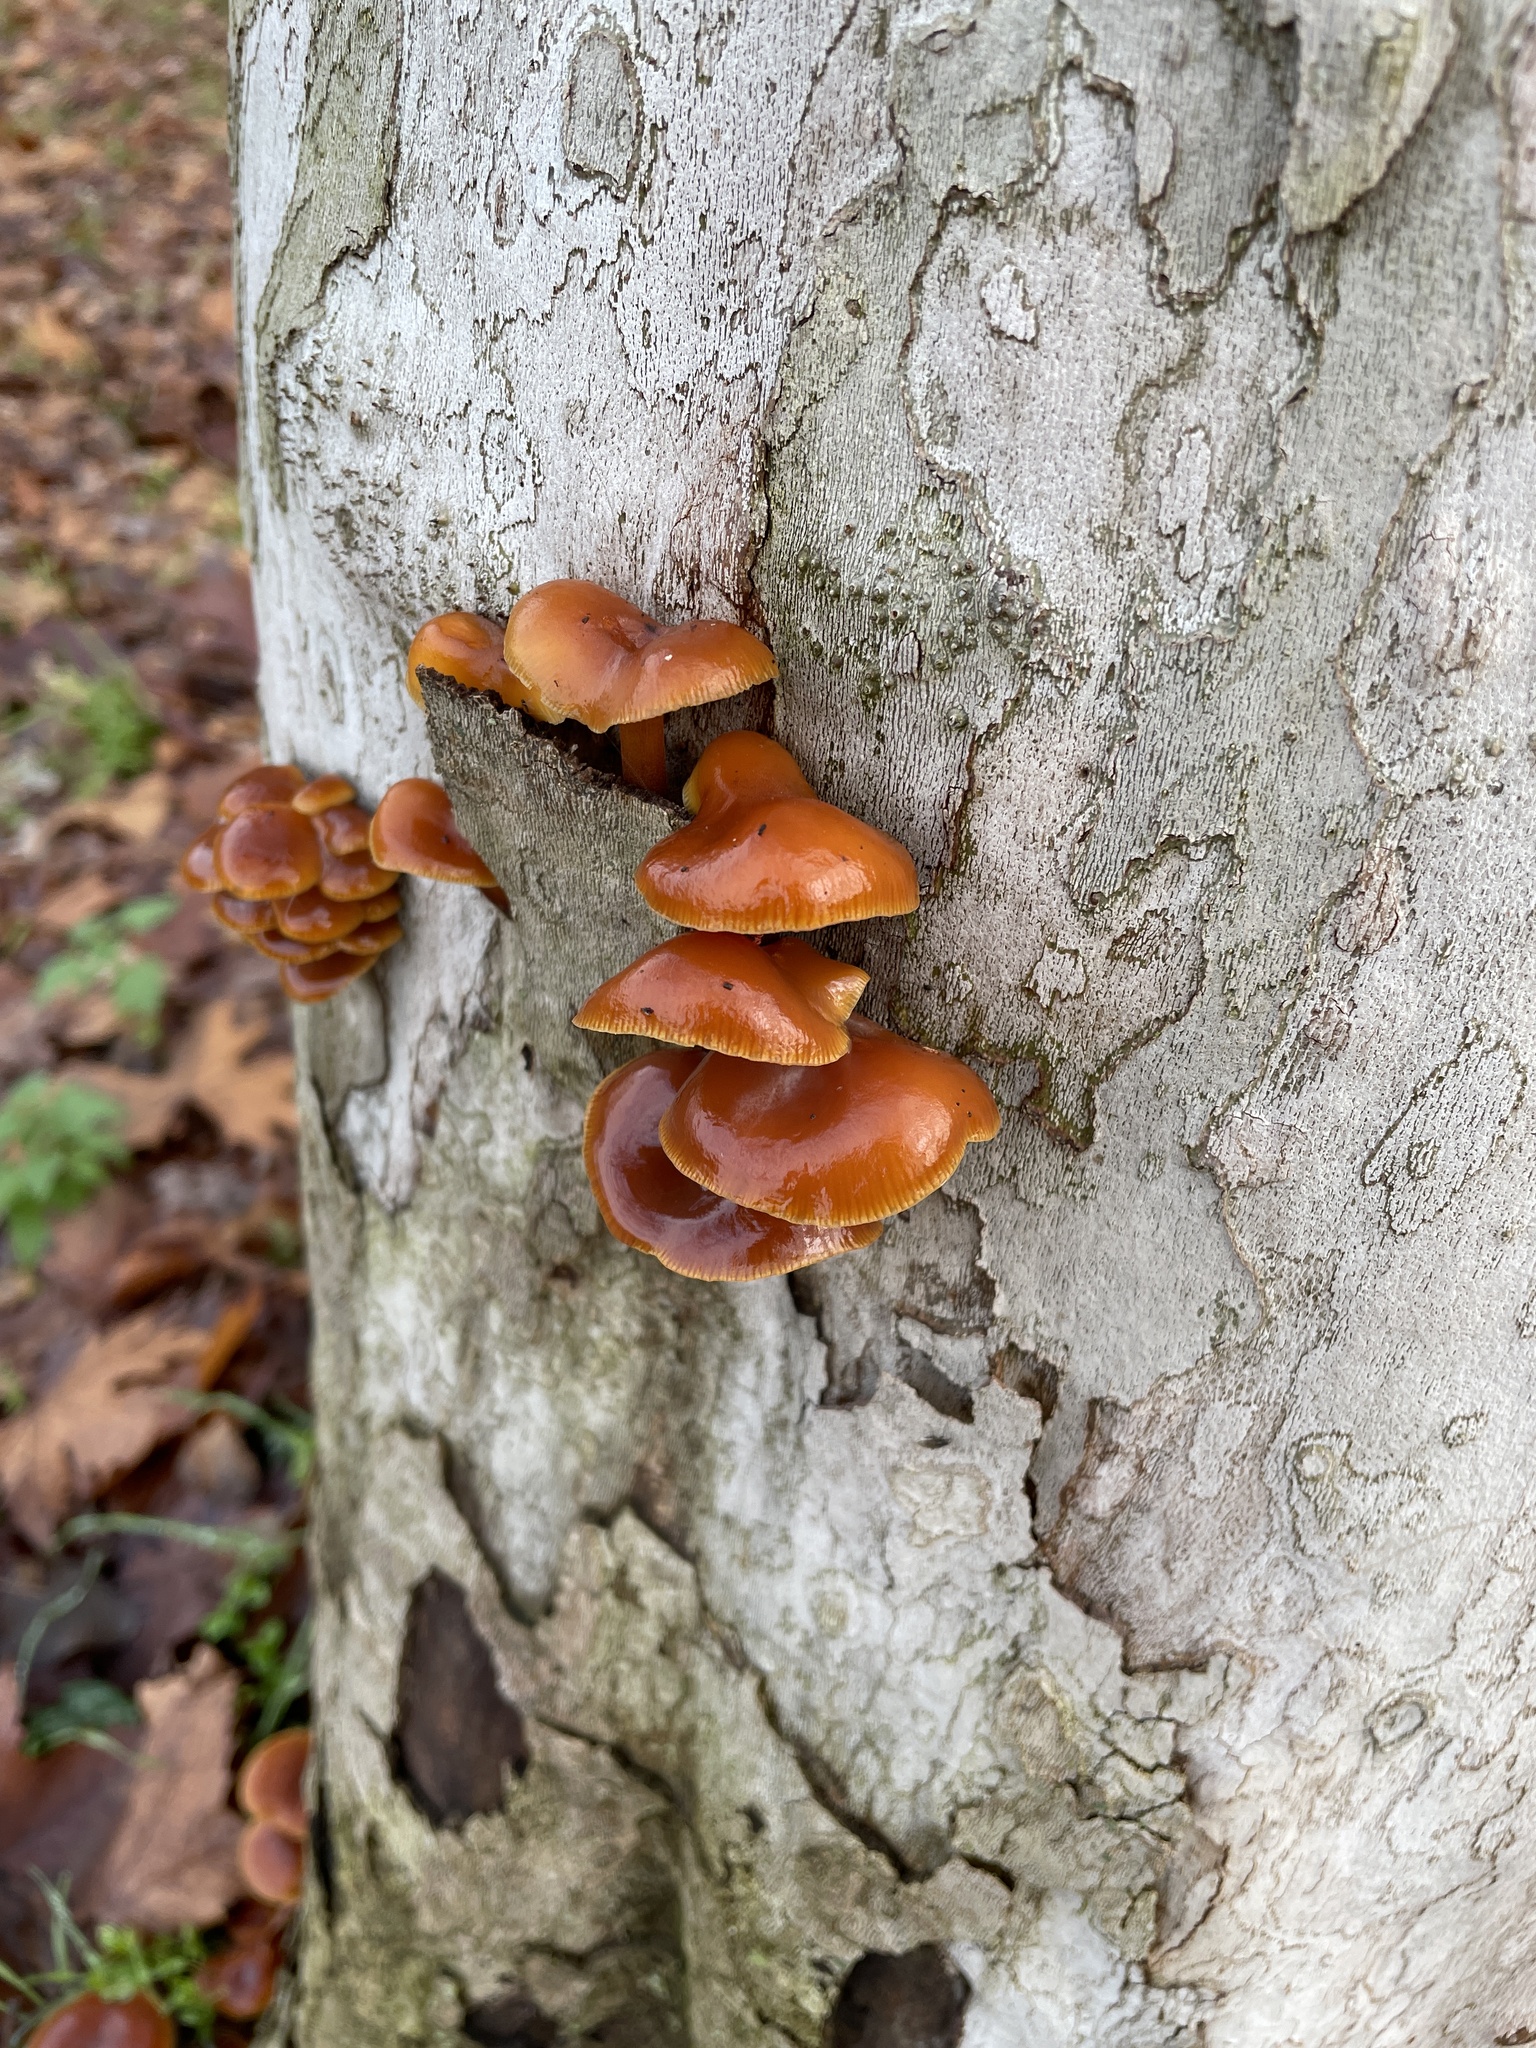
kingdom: Fungi
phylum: Basidiomycota
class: Agaricomycetes
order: Agaricales
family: Physalacriaceae
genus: Flammulina
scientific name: Flammulina
